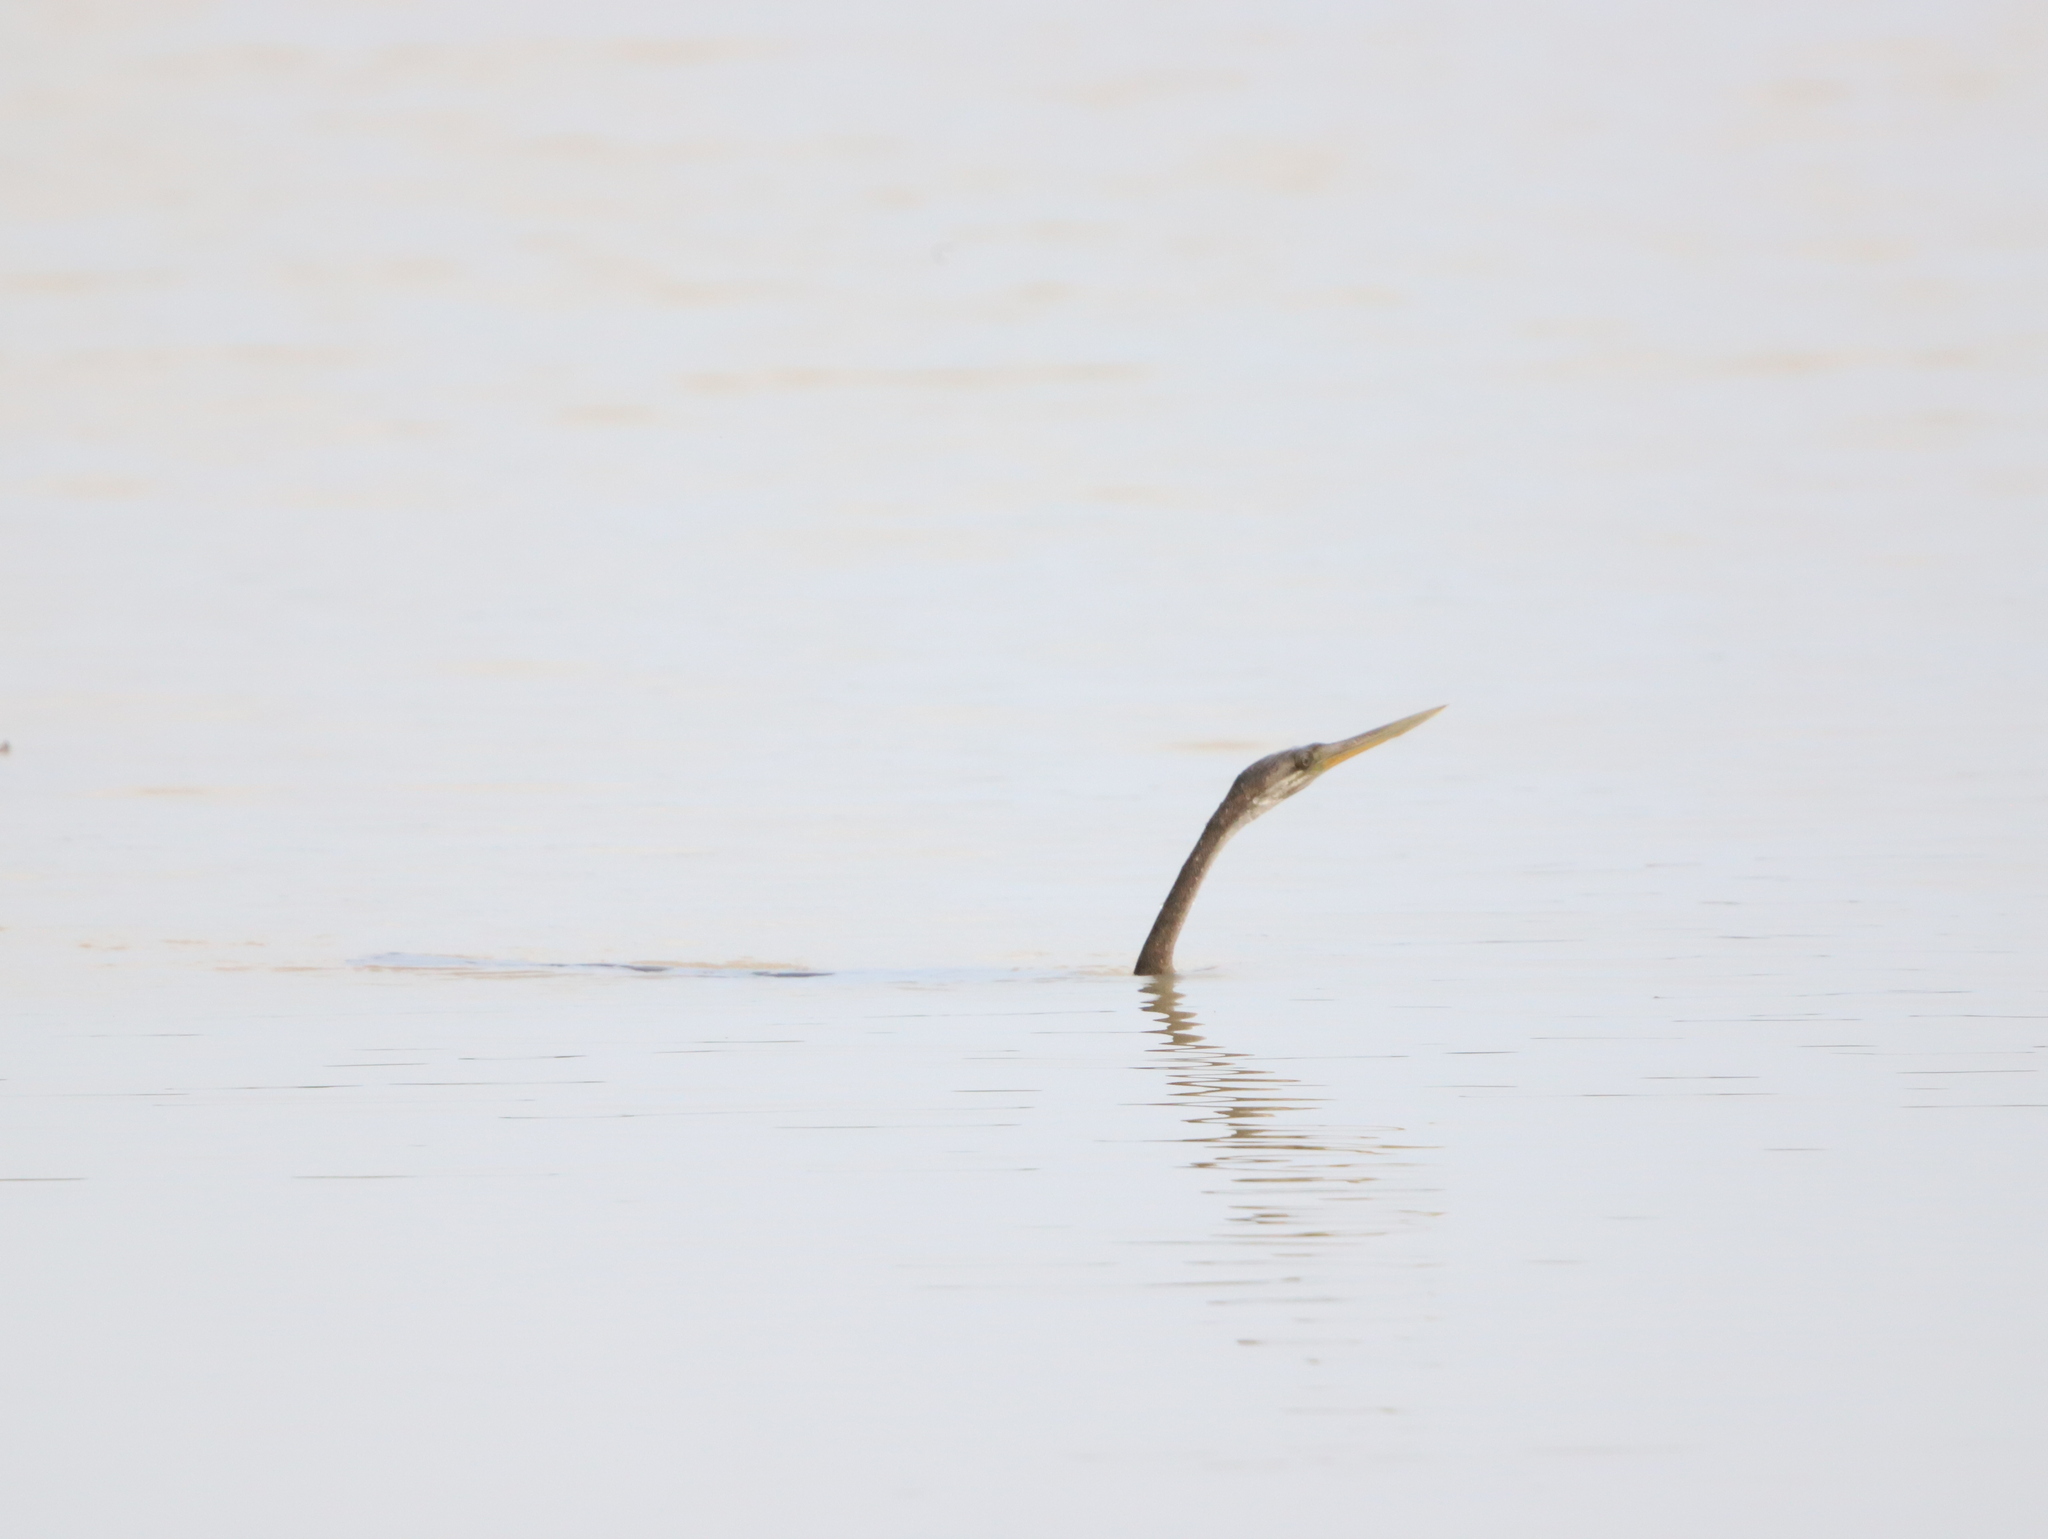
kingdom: Animalia
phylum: Chordata
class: Aves
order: Suliformes
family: Anhingidae
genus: Anhinga
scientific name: Anhinga melanogaster
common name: Oriental darter
